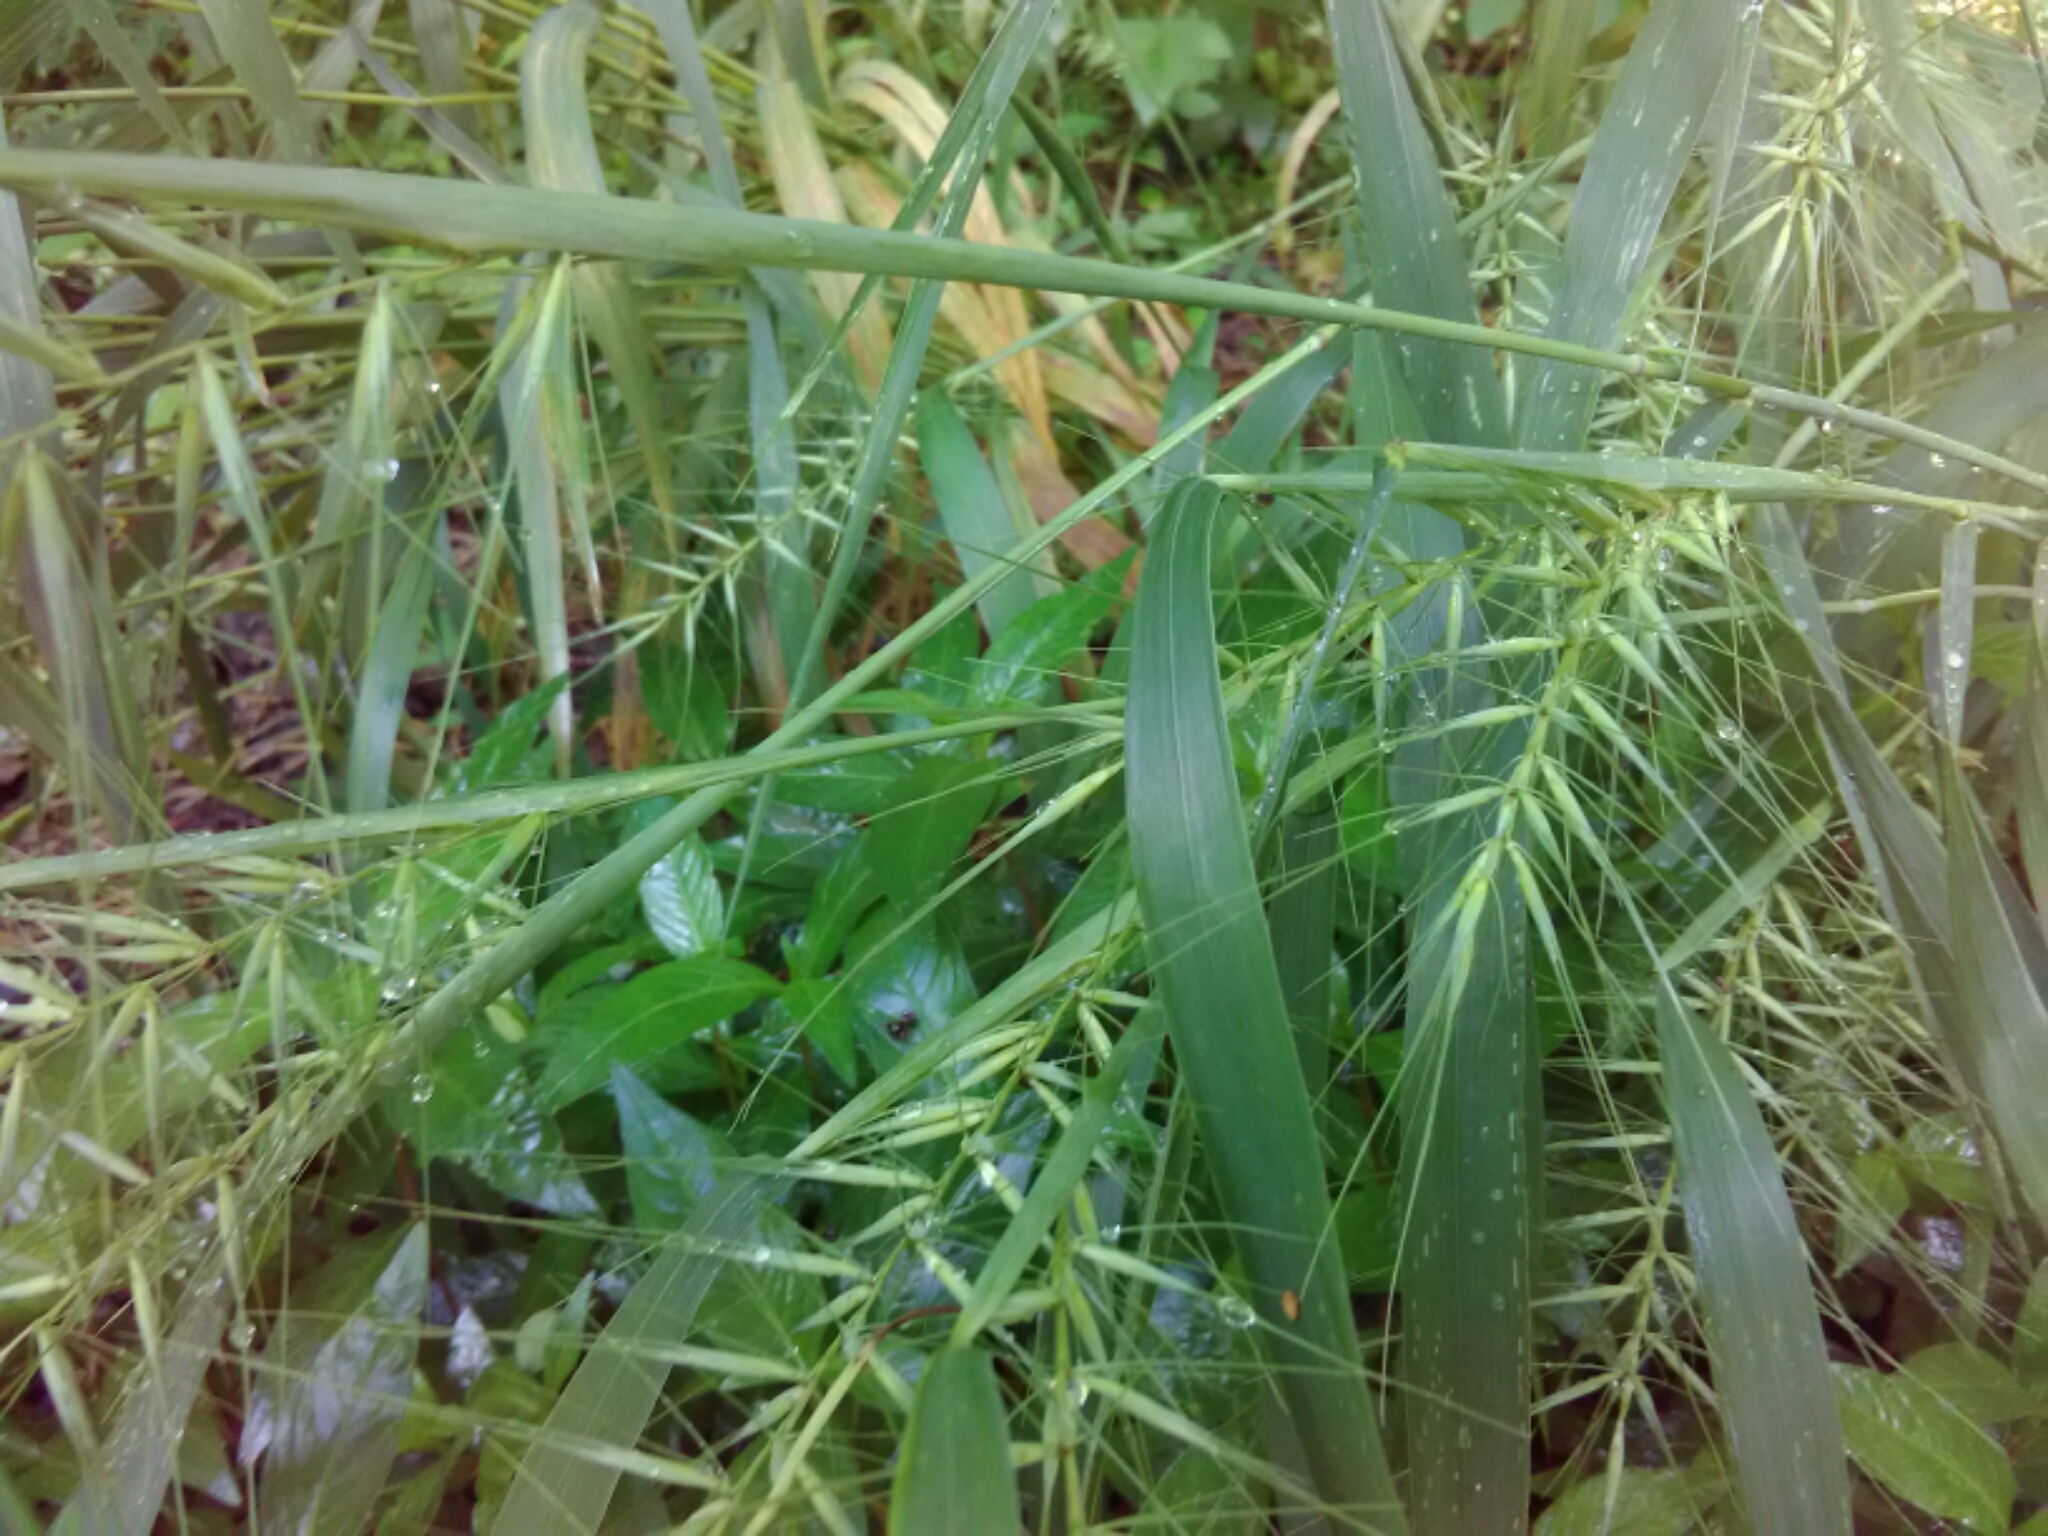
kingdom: Plantae
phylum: Tracheophyta
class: Liliopsida
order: Poales
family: Poaceae
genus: Elymus
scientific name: Elymus hystrix
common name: Bottlebrush grass
